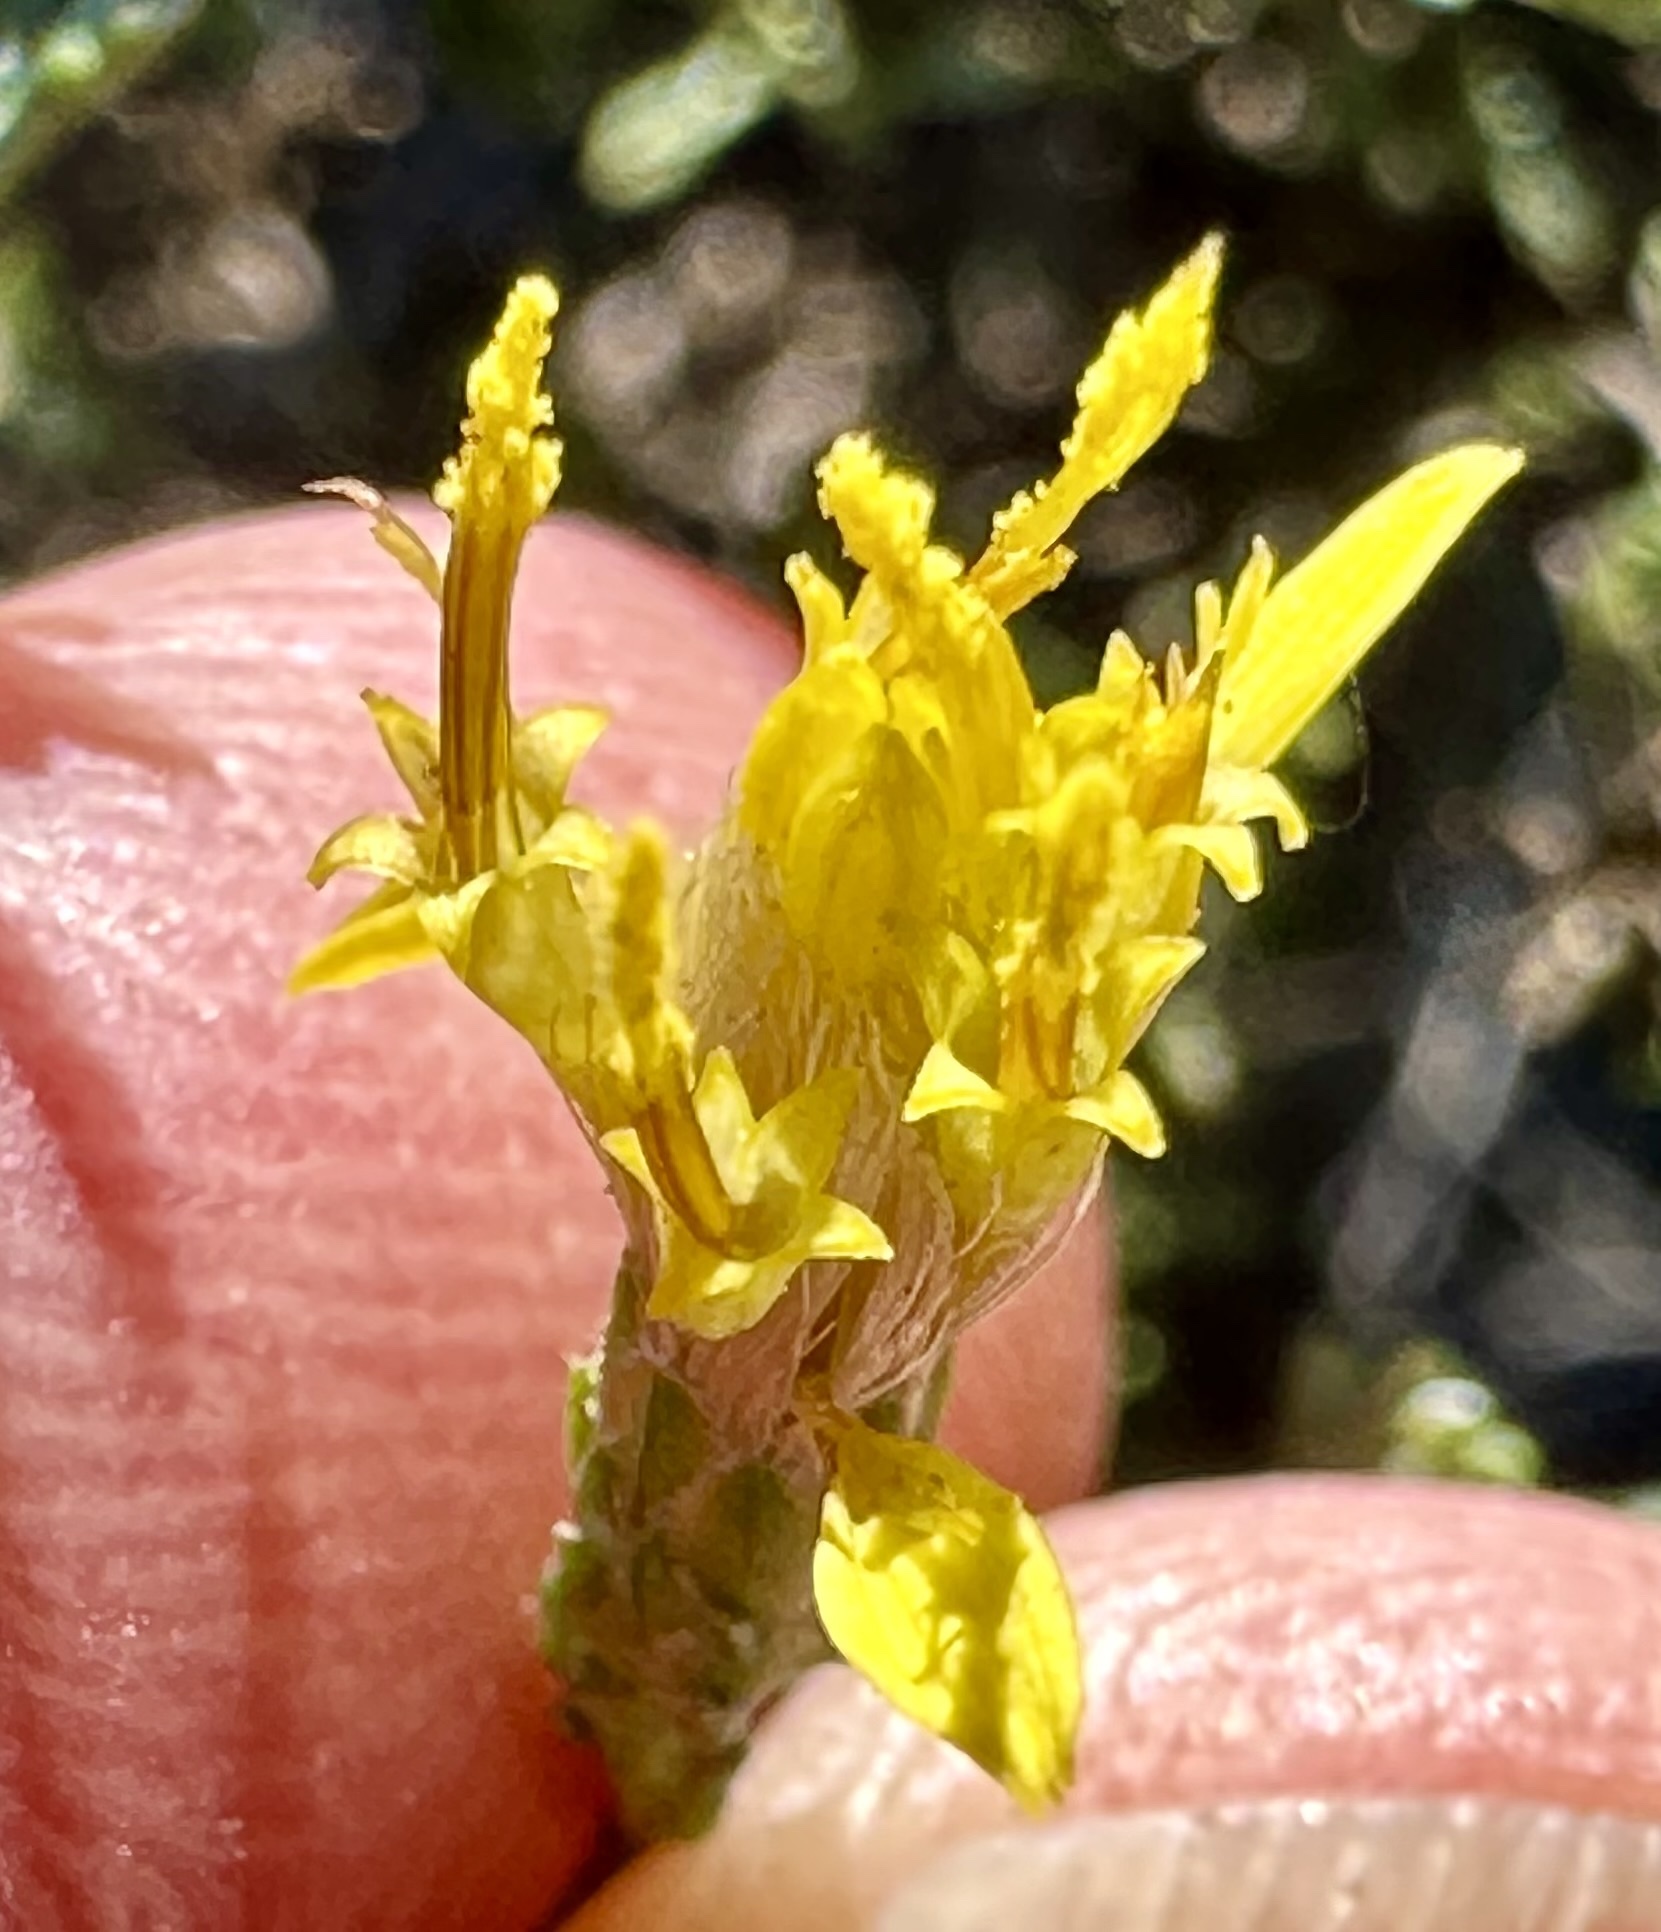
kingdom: Plantae
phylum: Tracheophyta
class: Magnoliopsida
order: Asterales
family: Asteraceae
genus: Ericameria
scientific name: Ericameria ericoides
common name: California goldenbush
